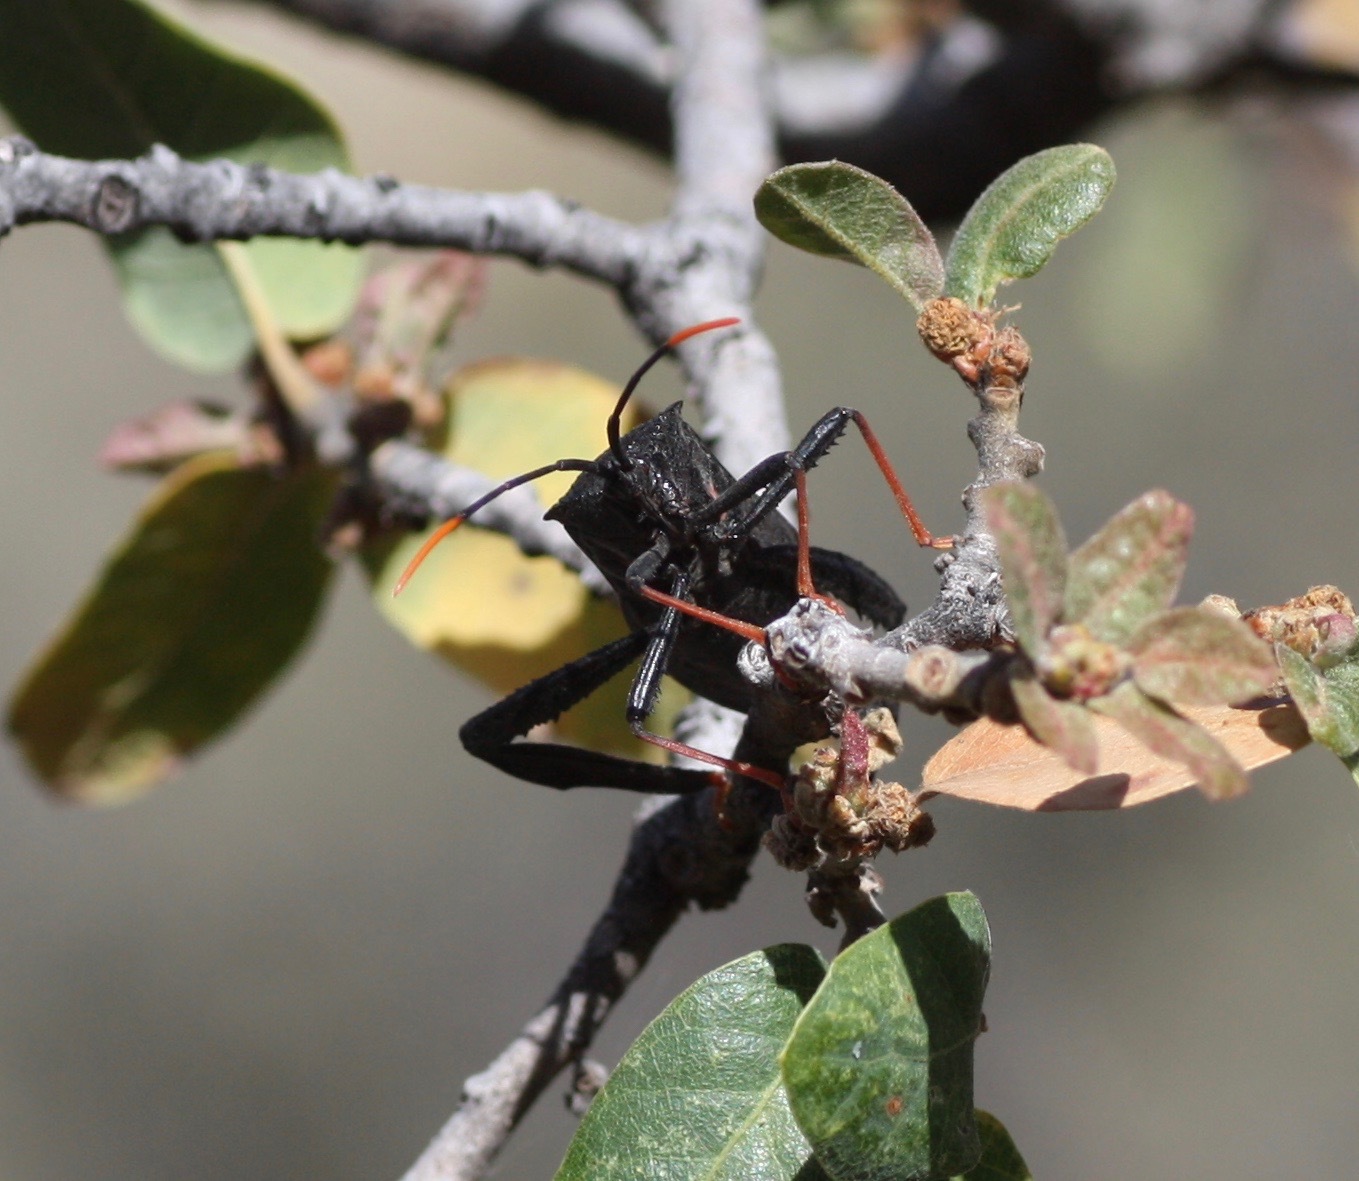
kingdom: Animalia
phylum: Arthropoda
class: Insecta
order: Hemiptera
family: Coreidae
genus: Acanthocephala
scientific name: Acanthocephala thomasi
